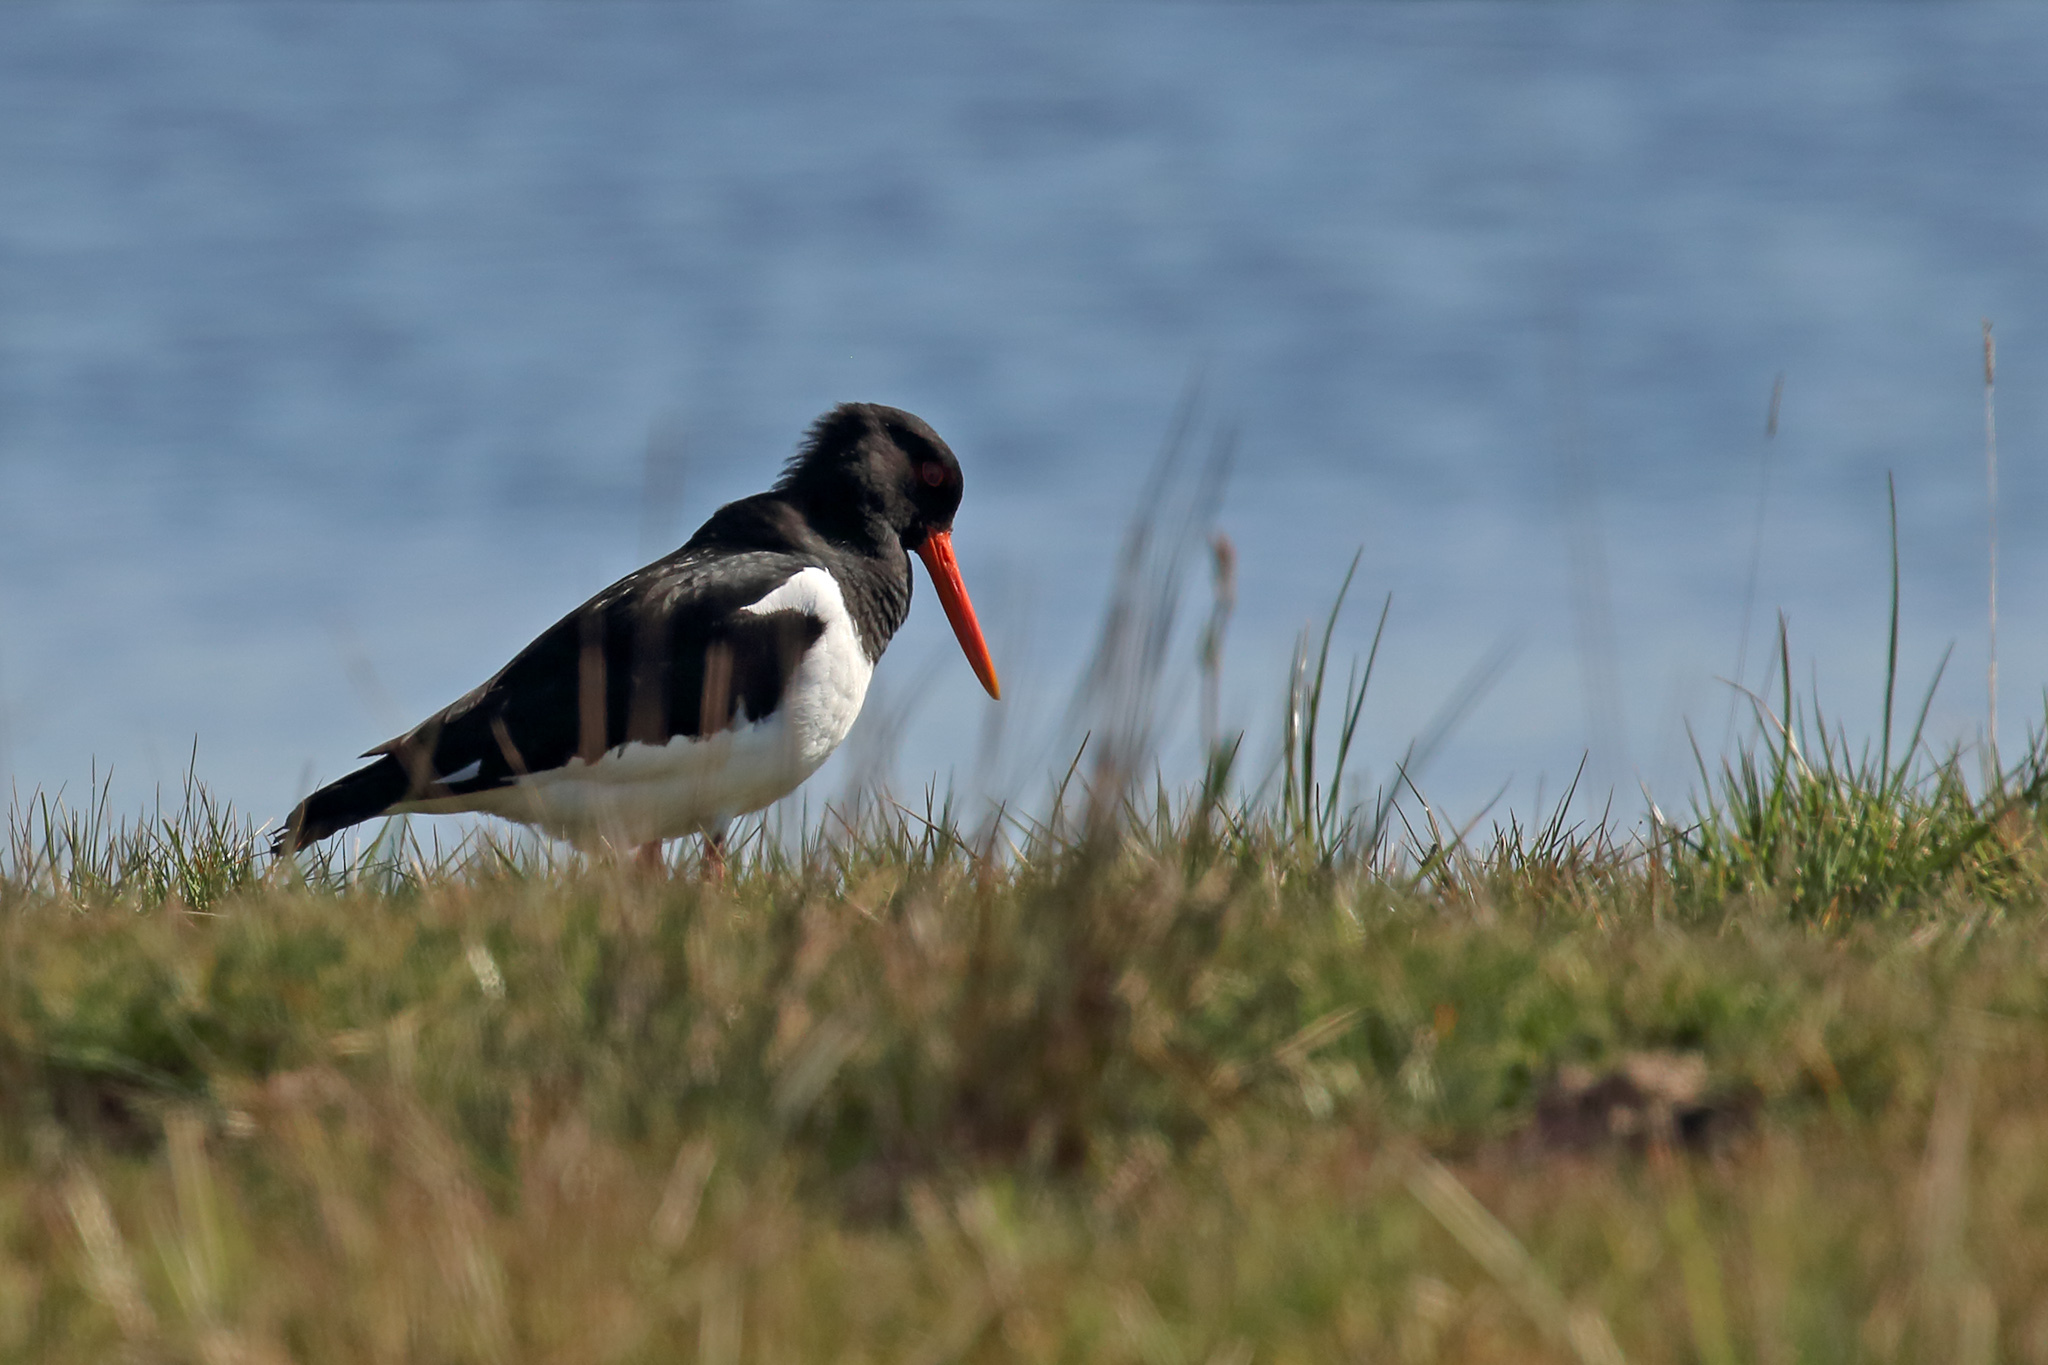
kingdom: Animalia
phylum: Chordata
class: Aves
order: Charadriiformes
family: Haematopodidae
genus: Haematopus
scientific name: Haematopus ostralegus
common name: Eurasian oystercatcher
